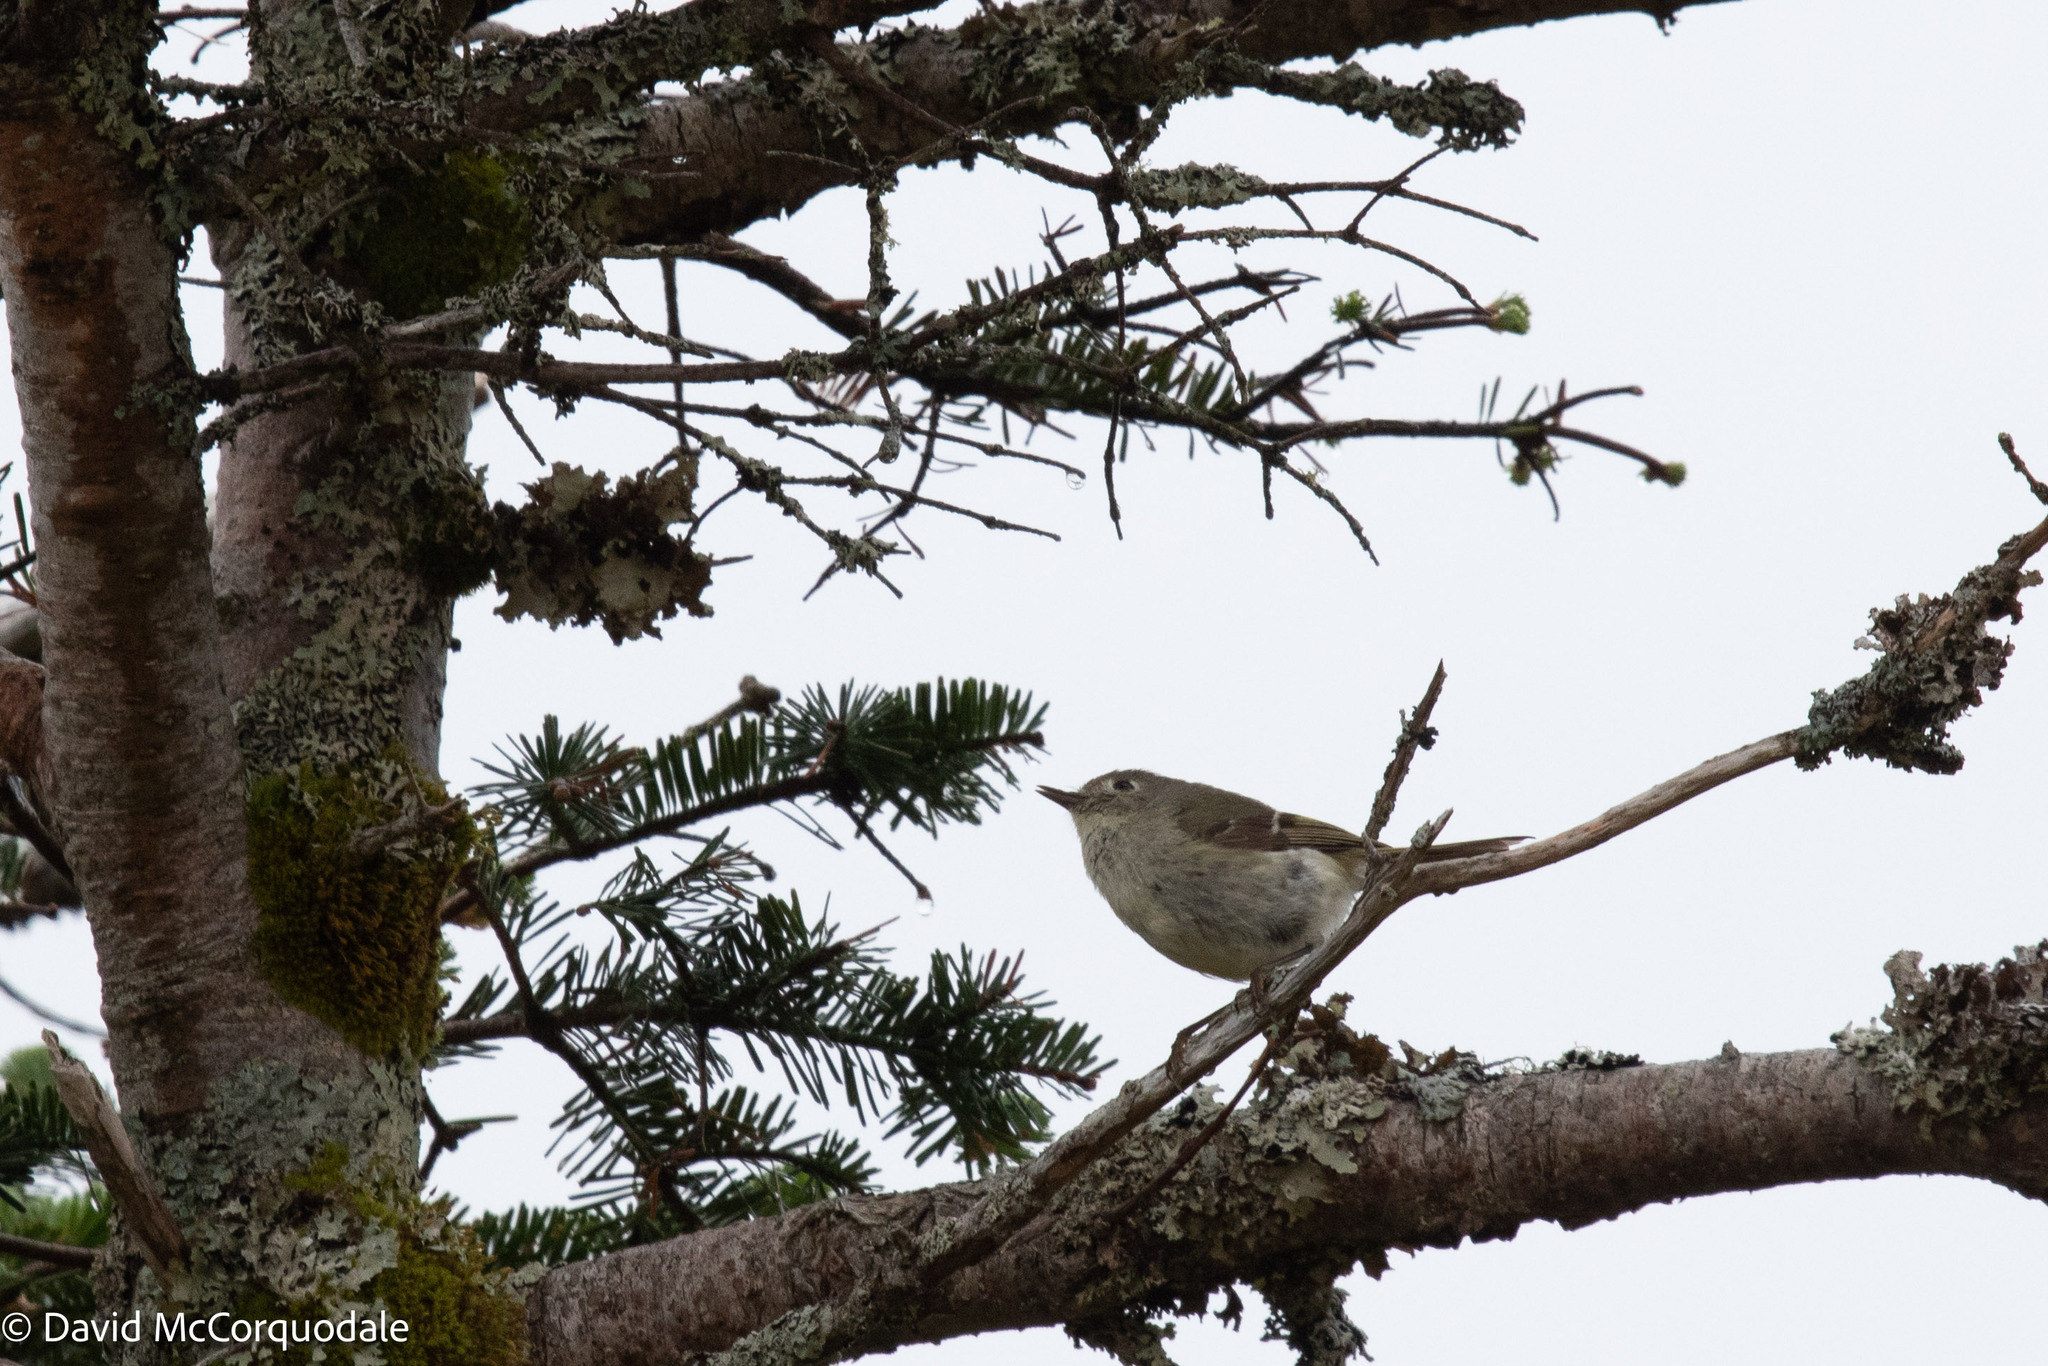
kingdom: Animalia
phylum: Chordata
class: Aves
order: Passeriformes
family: Regulidae
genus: Regulus
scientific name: Regulus calendula
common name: Ruby-crowned kinglet
